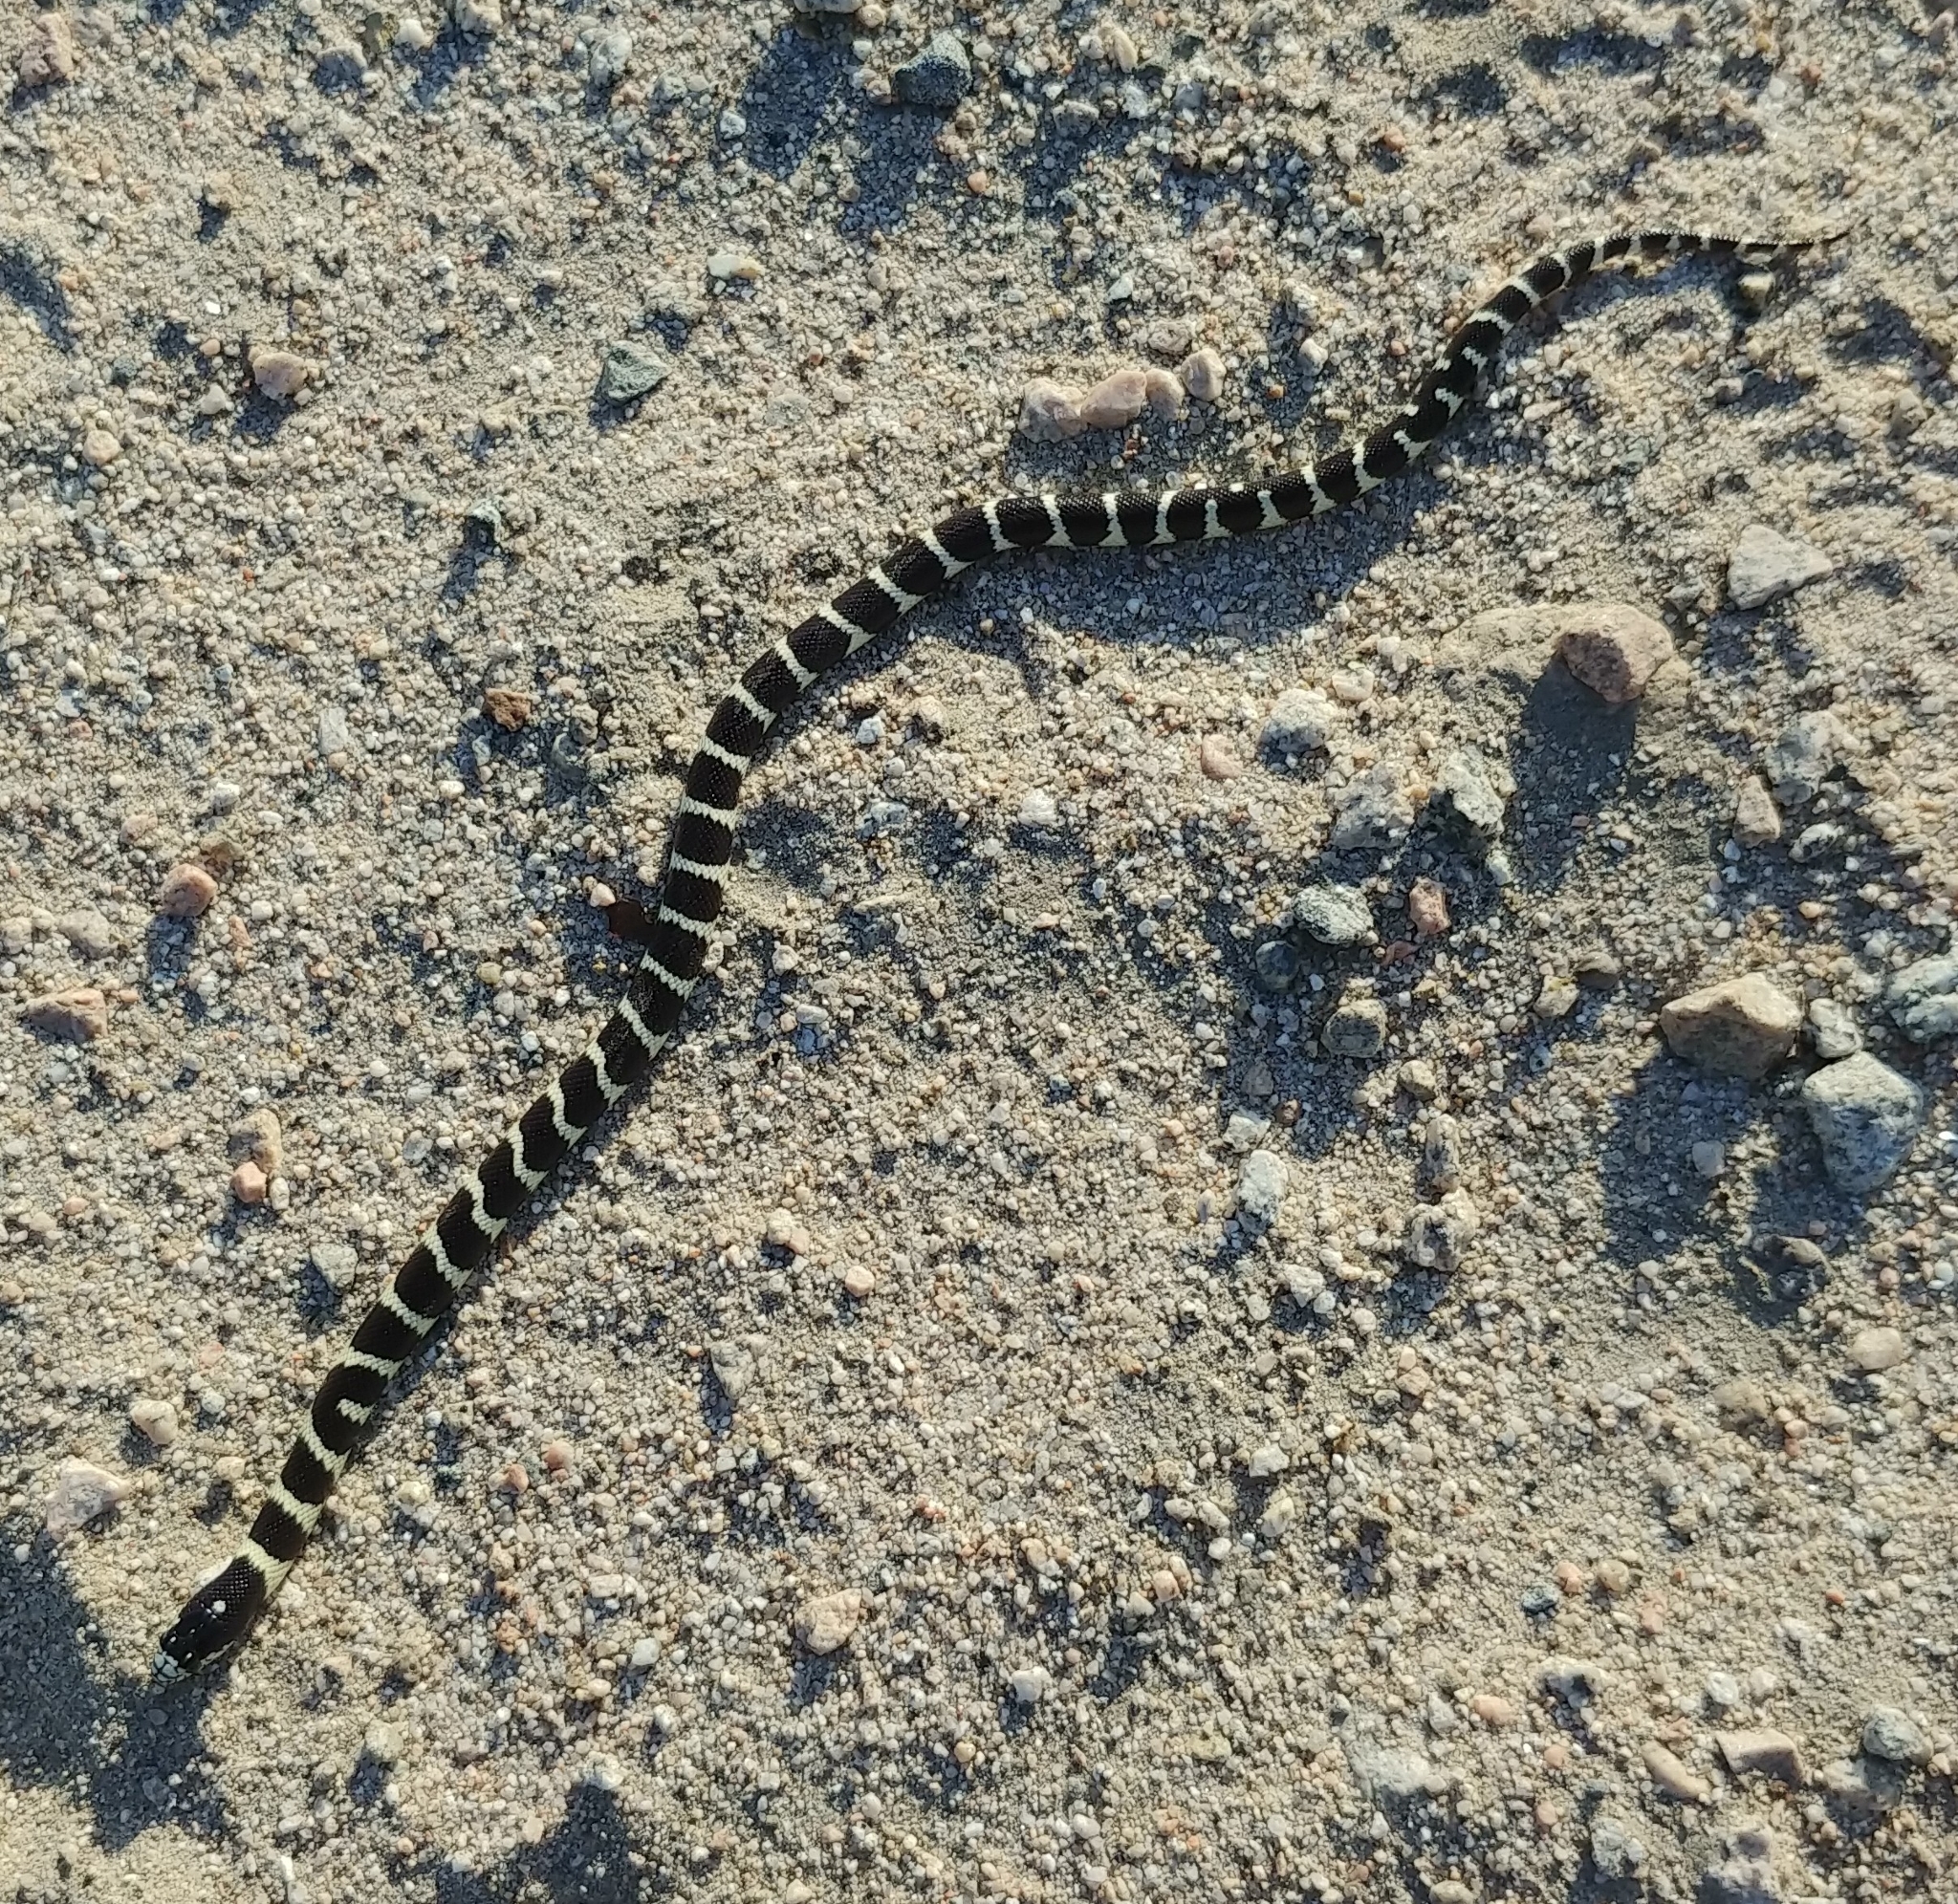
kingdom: Animalia
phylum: Chordata
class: Squamata
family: Colubridae
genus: Lampropeltis
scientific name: Lampropeltis californiae
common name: California kingsnake
